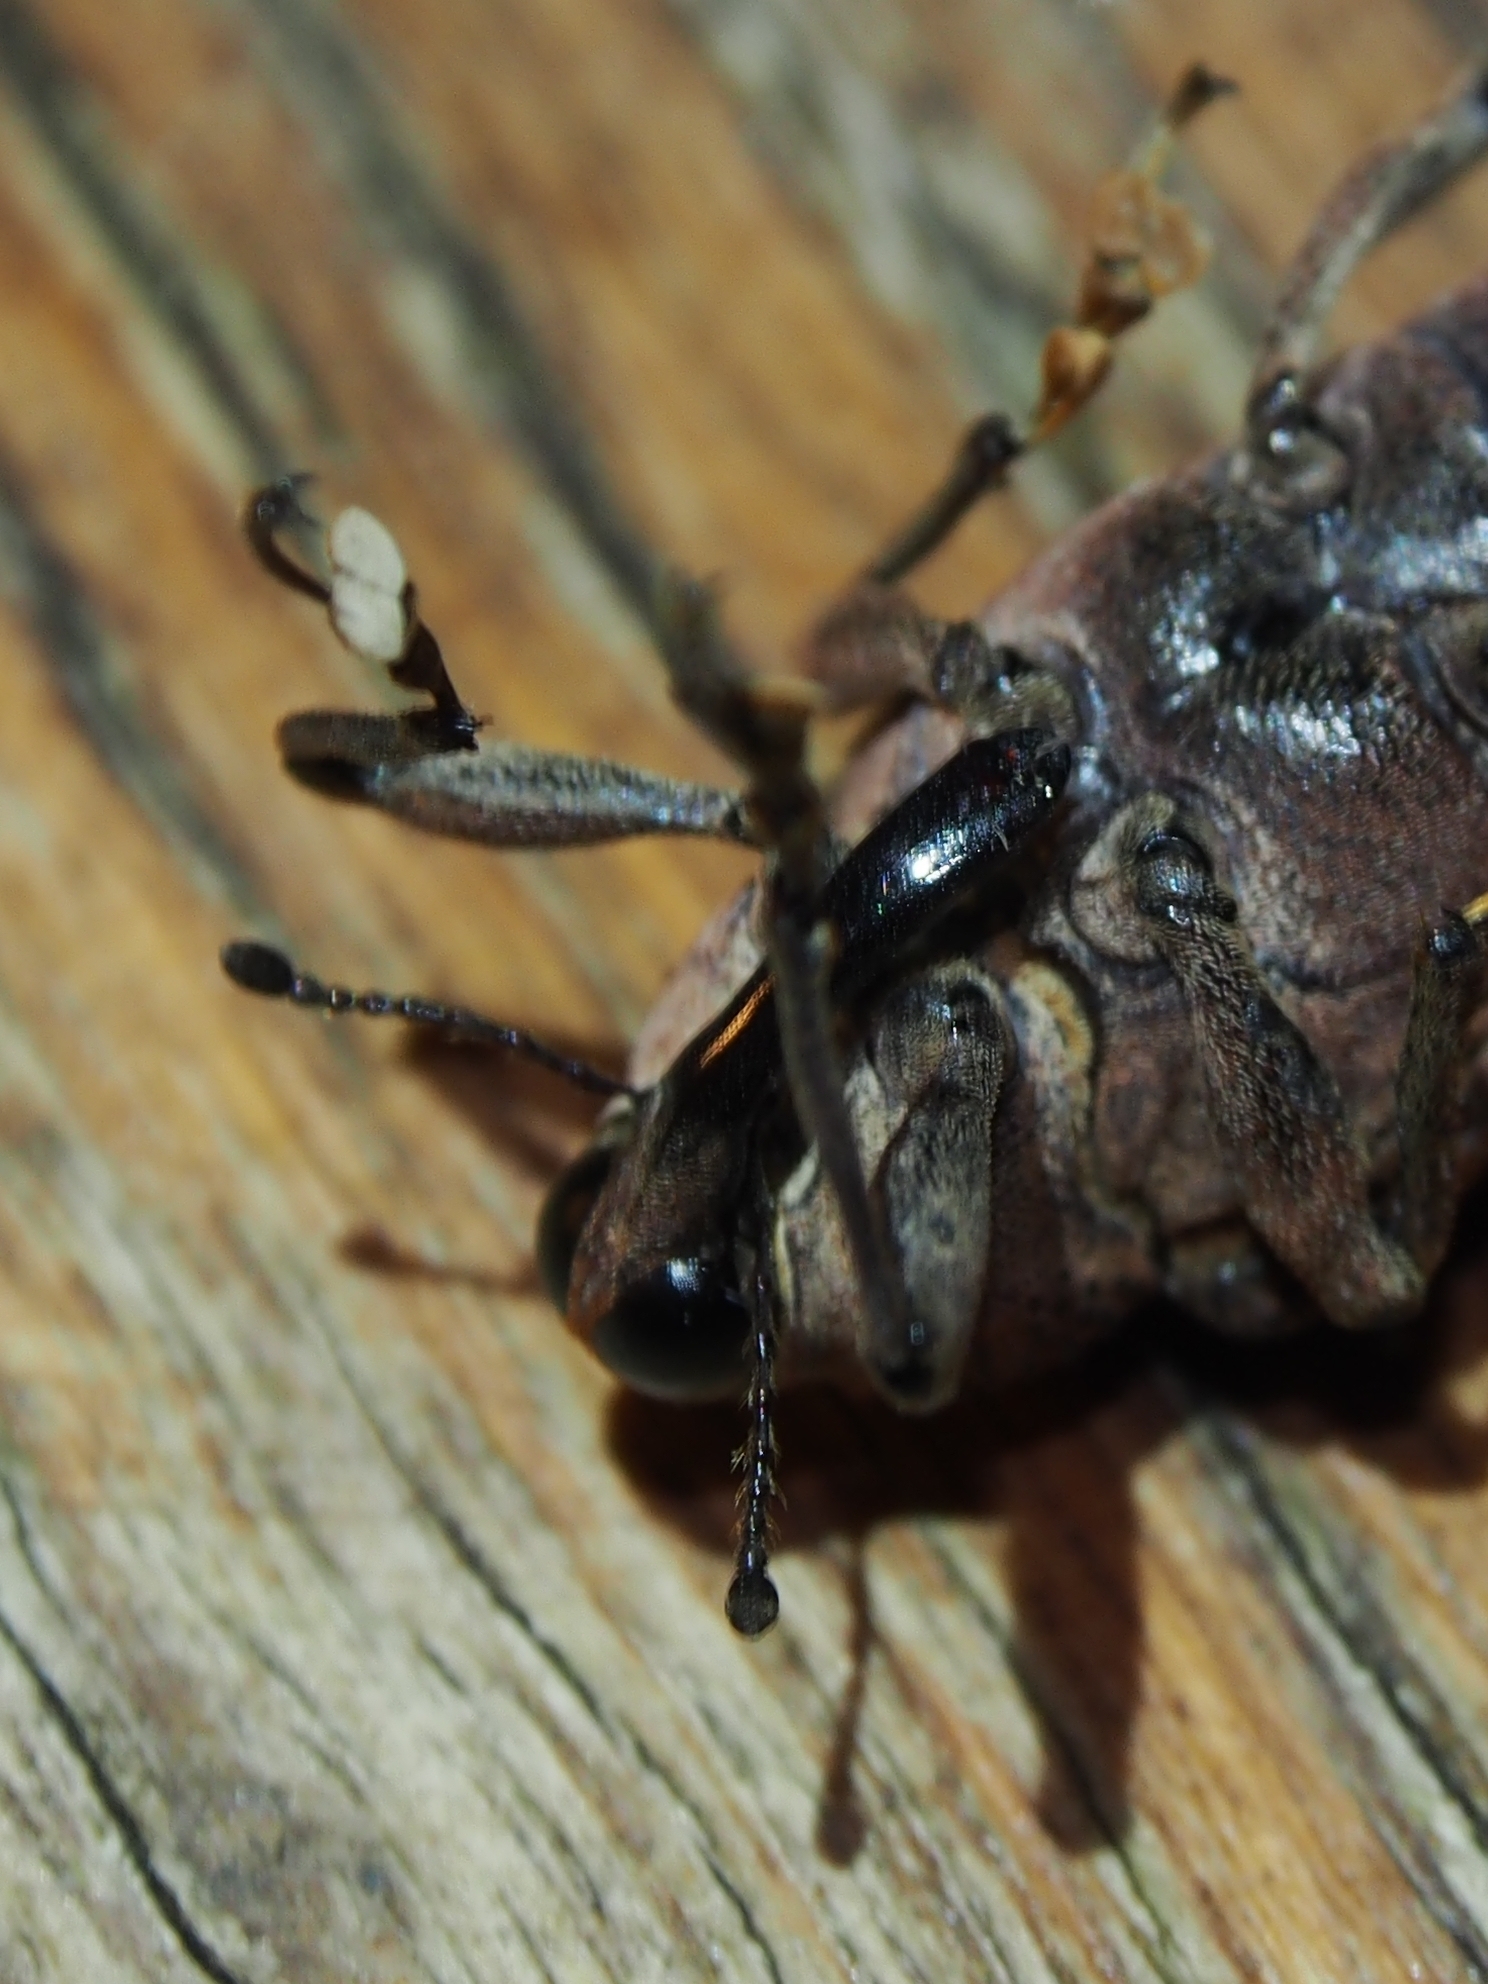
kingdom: Animalia
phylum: Arthropoda
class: Insecta
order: Coleoptera
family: Curculionidae
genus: Cratosomus
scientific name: Cratosomus gemmatus
